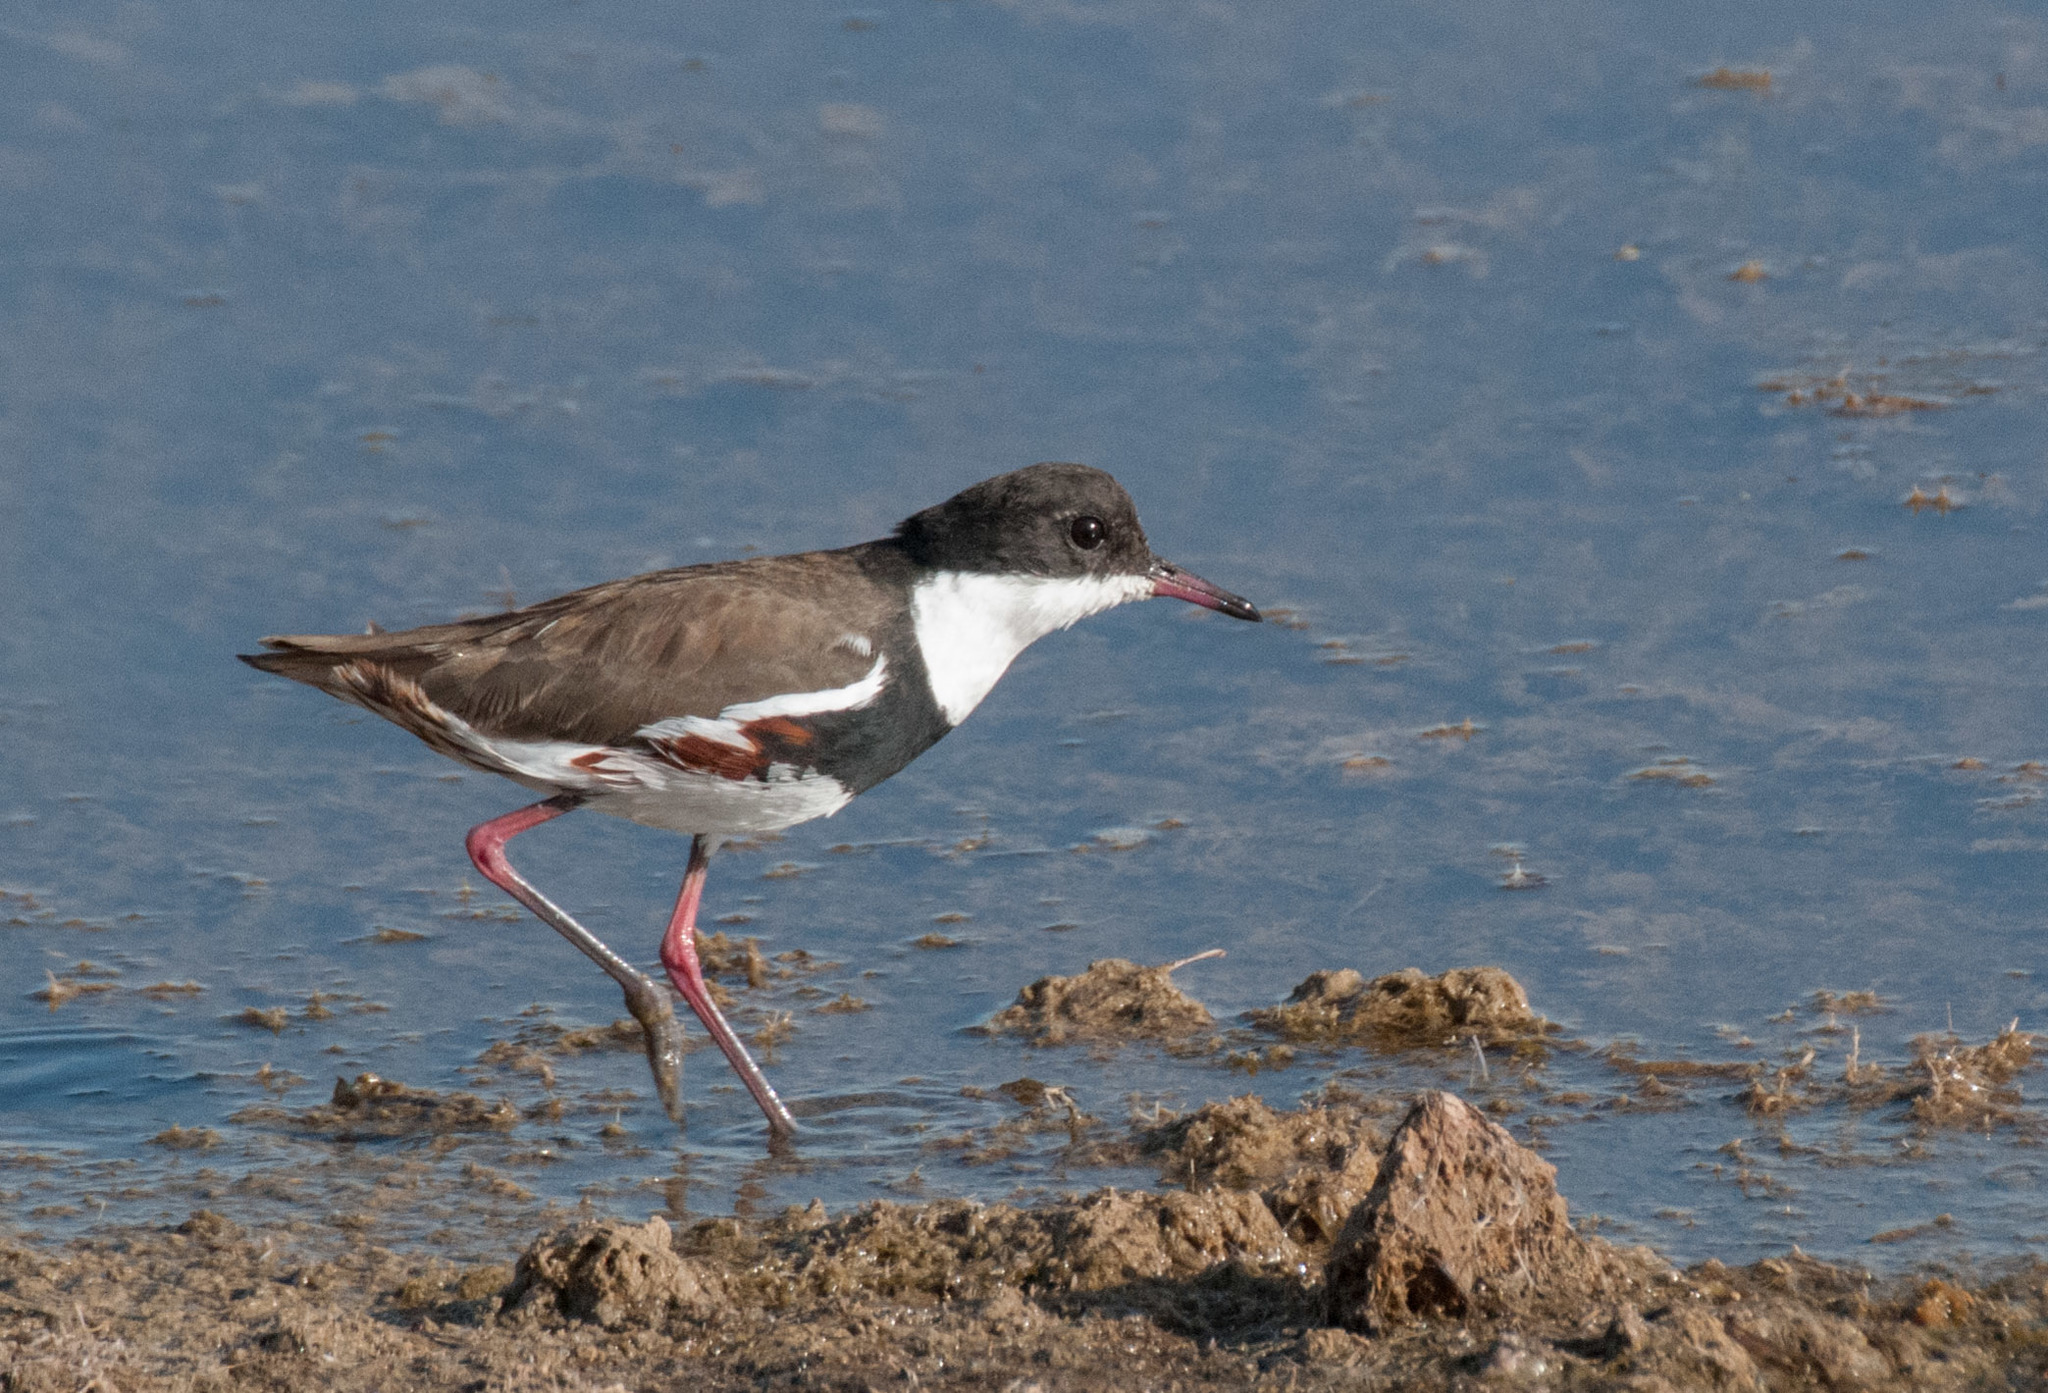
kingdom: Animalia
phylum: Chordata
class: Aves
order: Charadriiformes
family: Charadriidae
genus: Erythrogonys
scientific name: Erythrogonys cinctus
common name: Red-kneed dotterel
